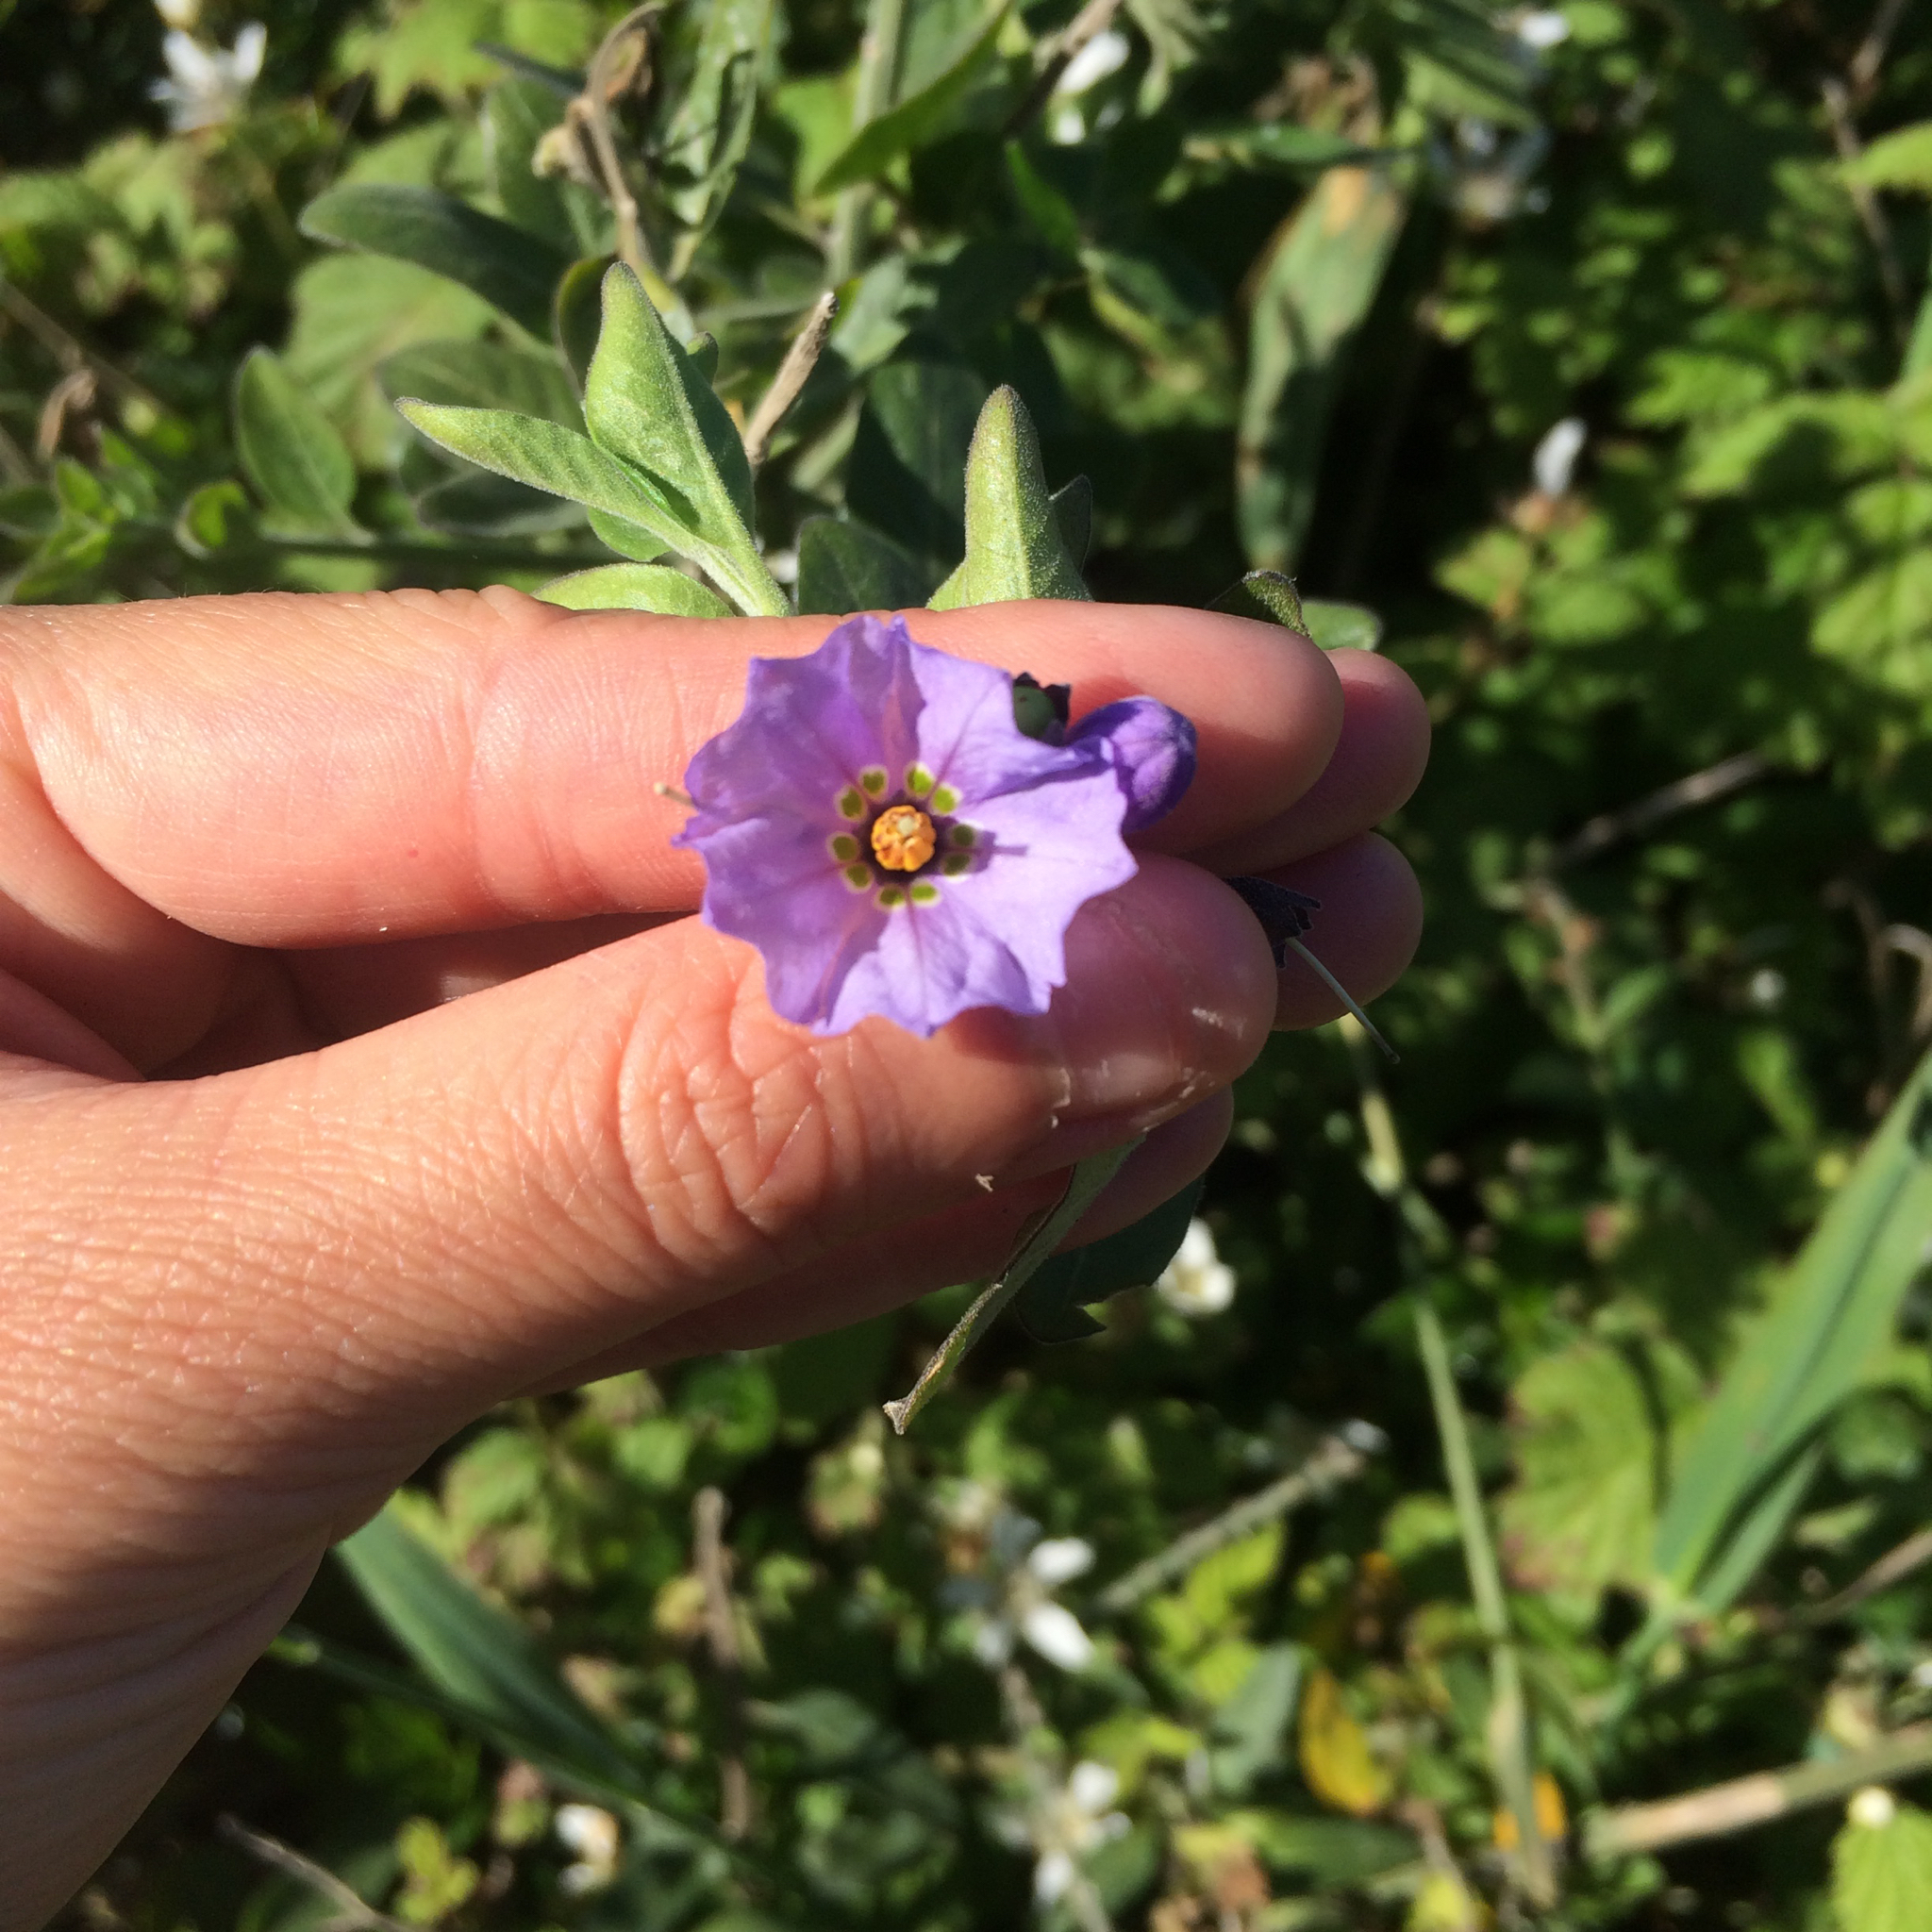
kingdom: Plantae
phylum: Tracheophyta
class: Magnoliopsida
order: Solanales
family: Solanaceae
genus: Solanum
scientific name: Solanum umbelliferum
